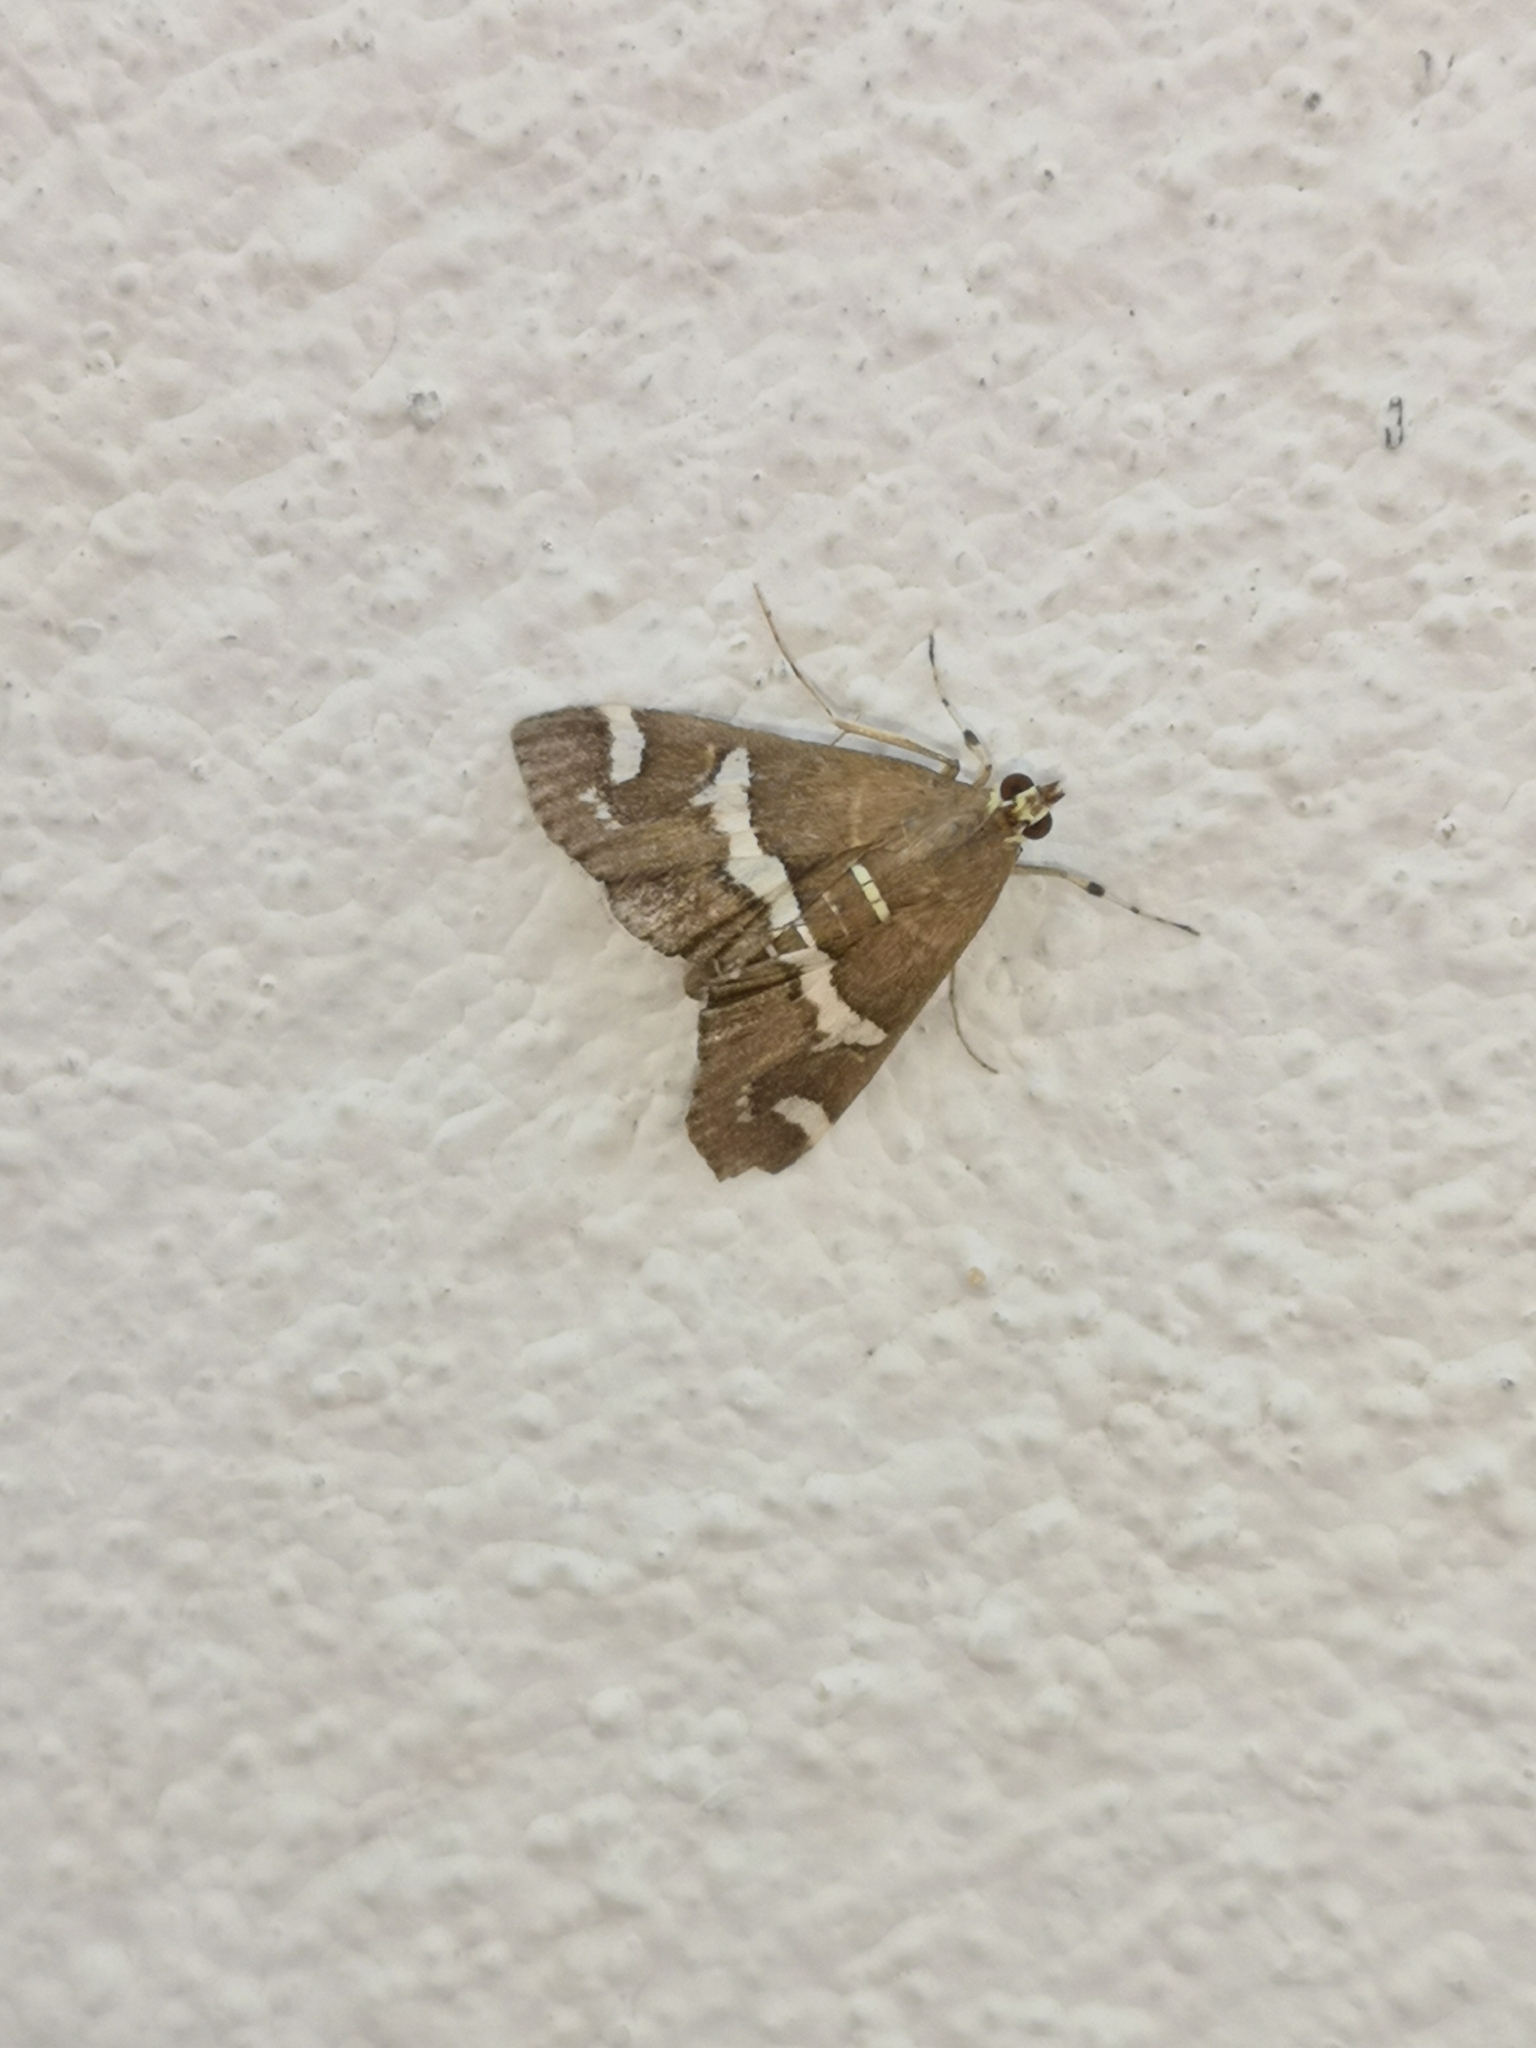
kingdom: Animalia
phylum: Arthropoda
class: Insecta
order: Lepidoptera
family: Crambidae
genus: Spoladea
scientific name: Spoladea recurvalis
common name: Beet webworm moth
